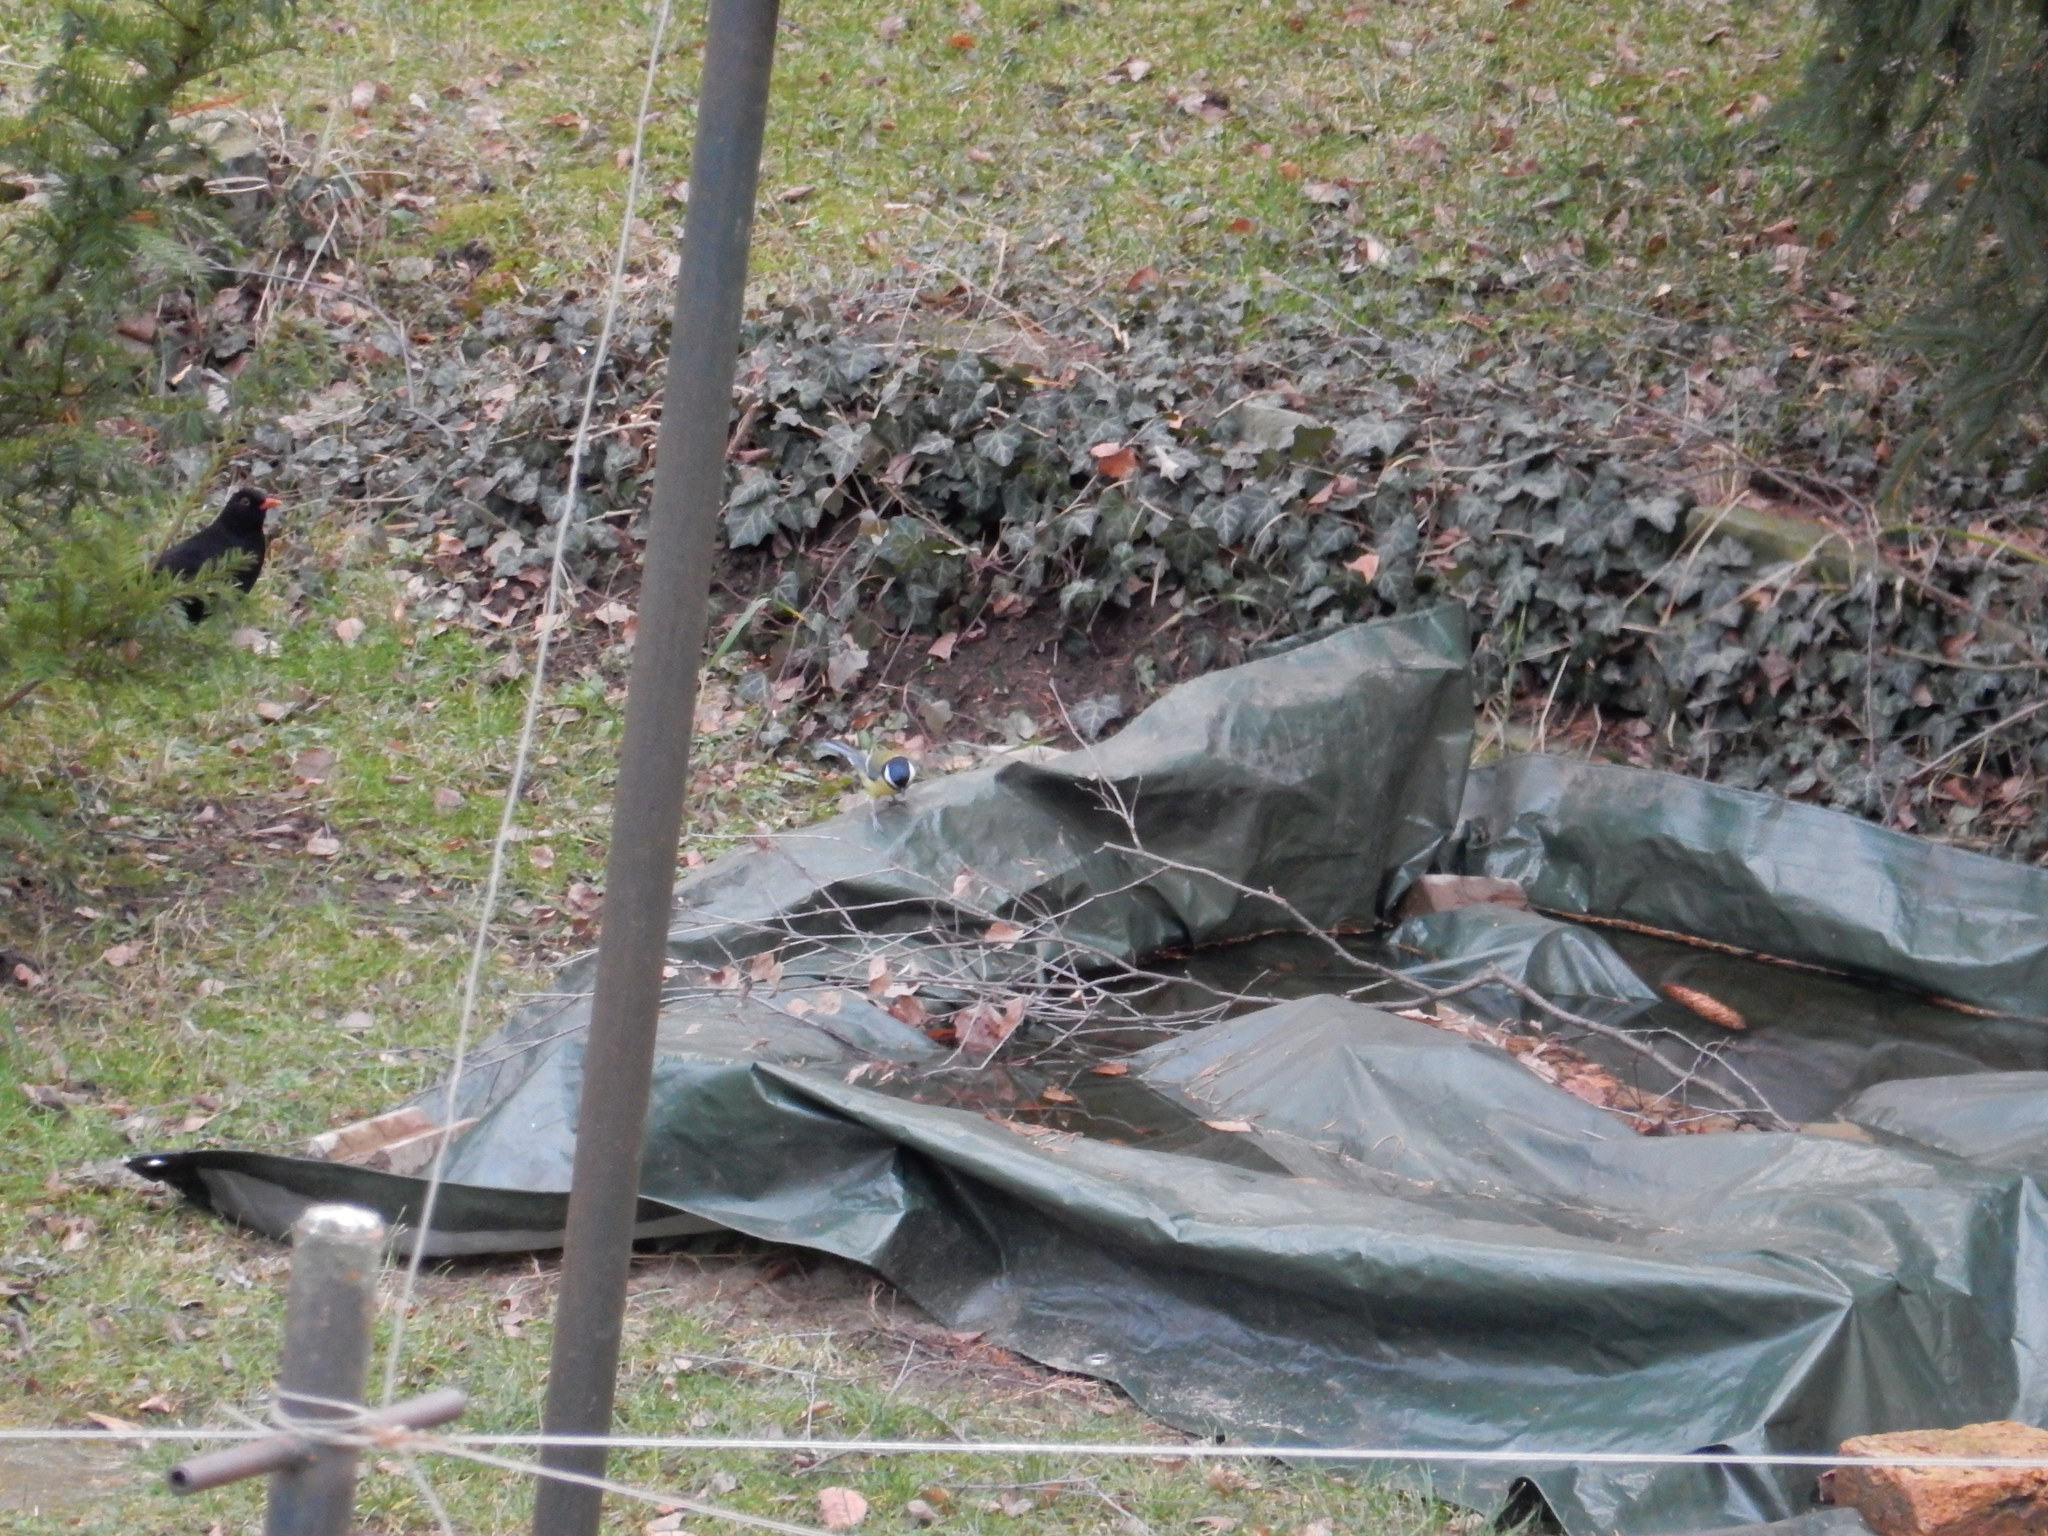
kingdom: Animalia
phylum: Chordata
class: Aves
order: Passeriformes
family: Paridae
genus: Parus
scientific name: Parus major
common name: Great tit
